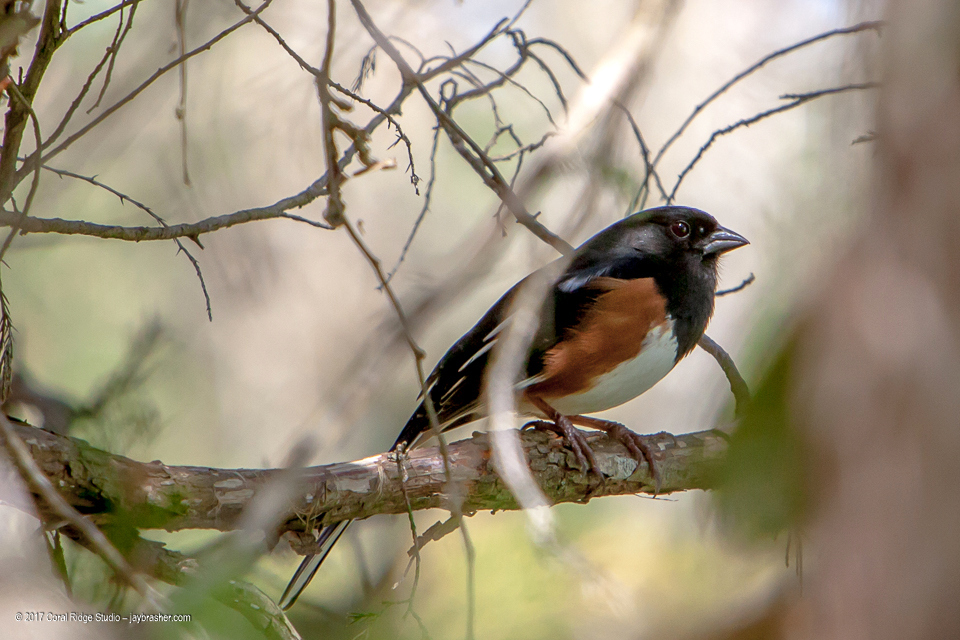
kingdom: Animalia
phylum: Chordata
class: Aves
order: Passeriformes
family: Passerellidae
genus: Pipilo
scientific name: Pipilo erythrophthalmus
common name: Eastern towhee
